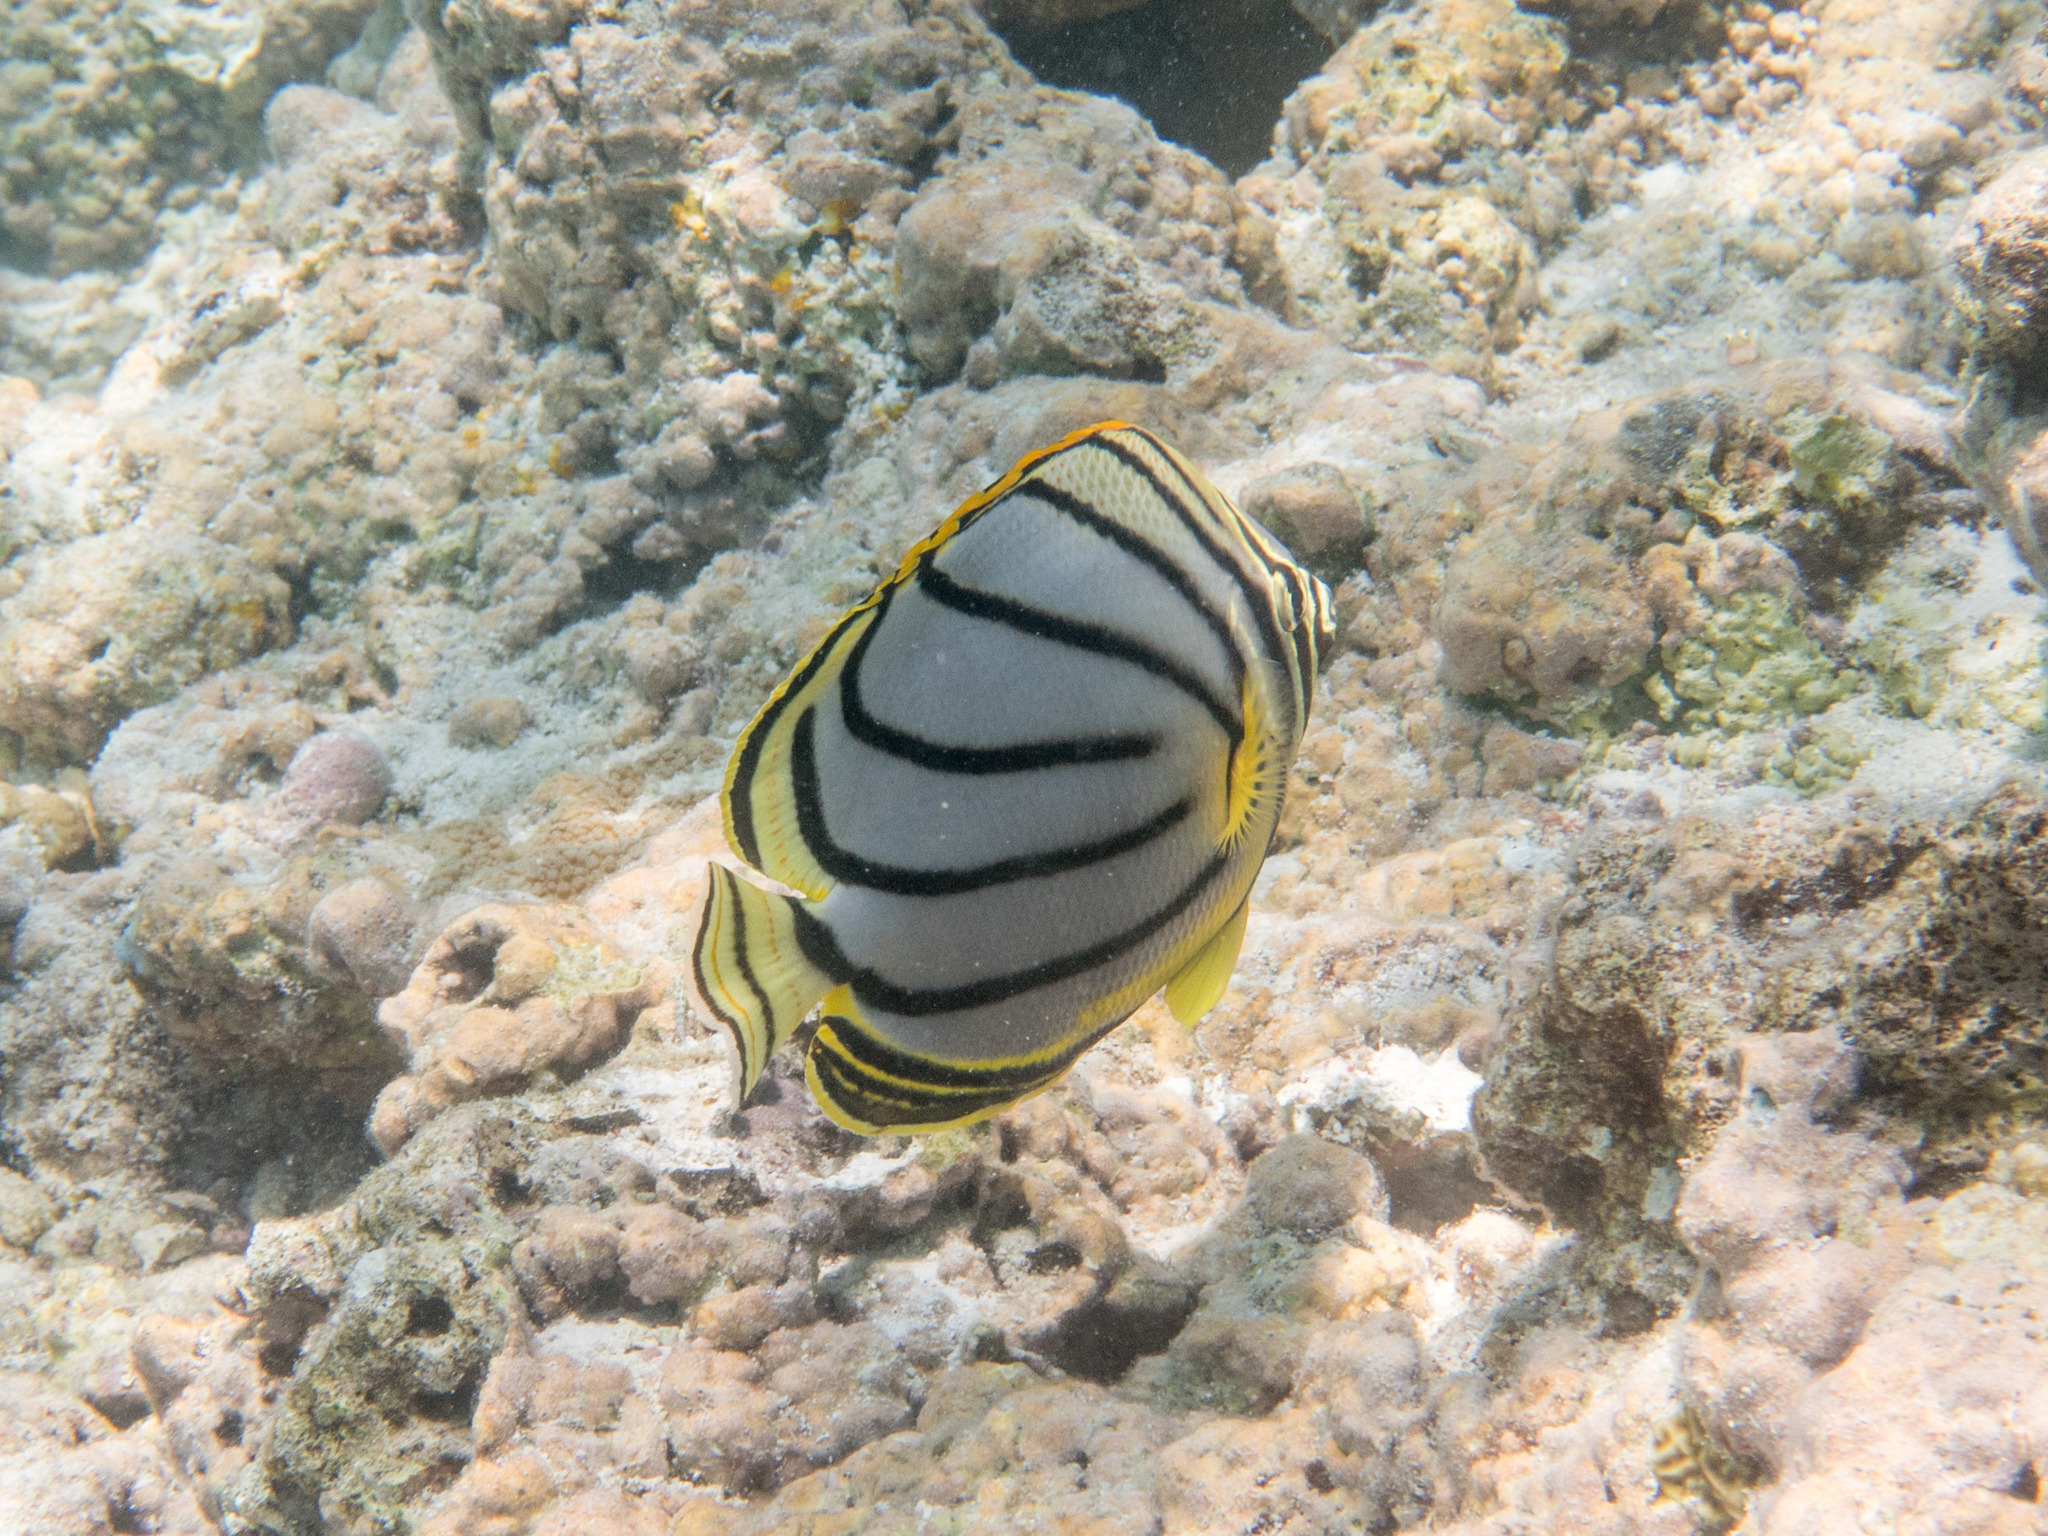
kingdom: Animalia
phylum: Chordata
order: Perciformes
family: Chaetodontidae
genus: Chaetodon
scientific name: Chaetodon meyeri
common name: Meyer's butterflyfish
